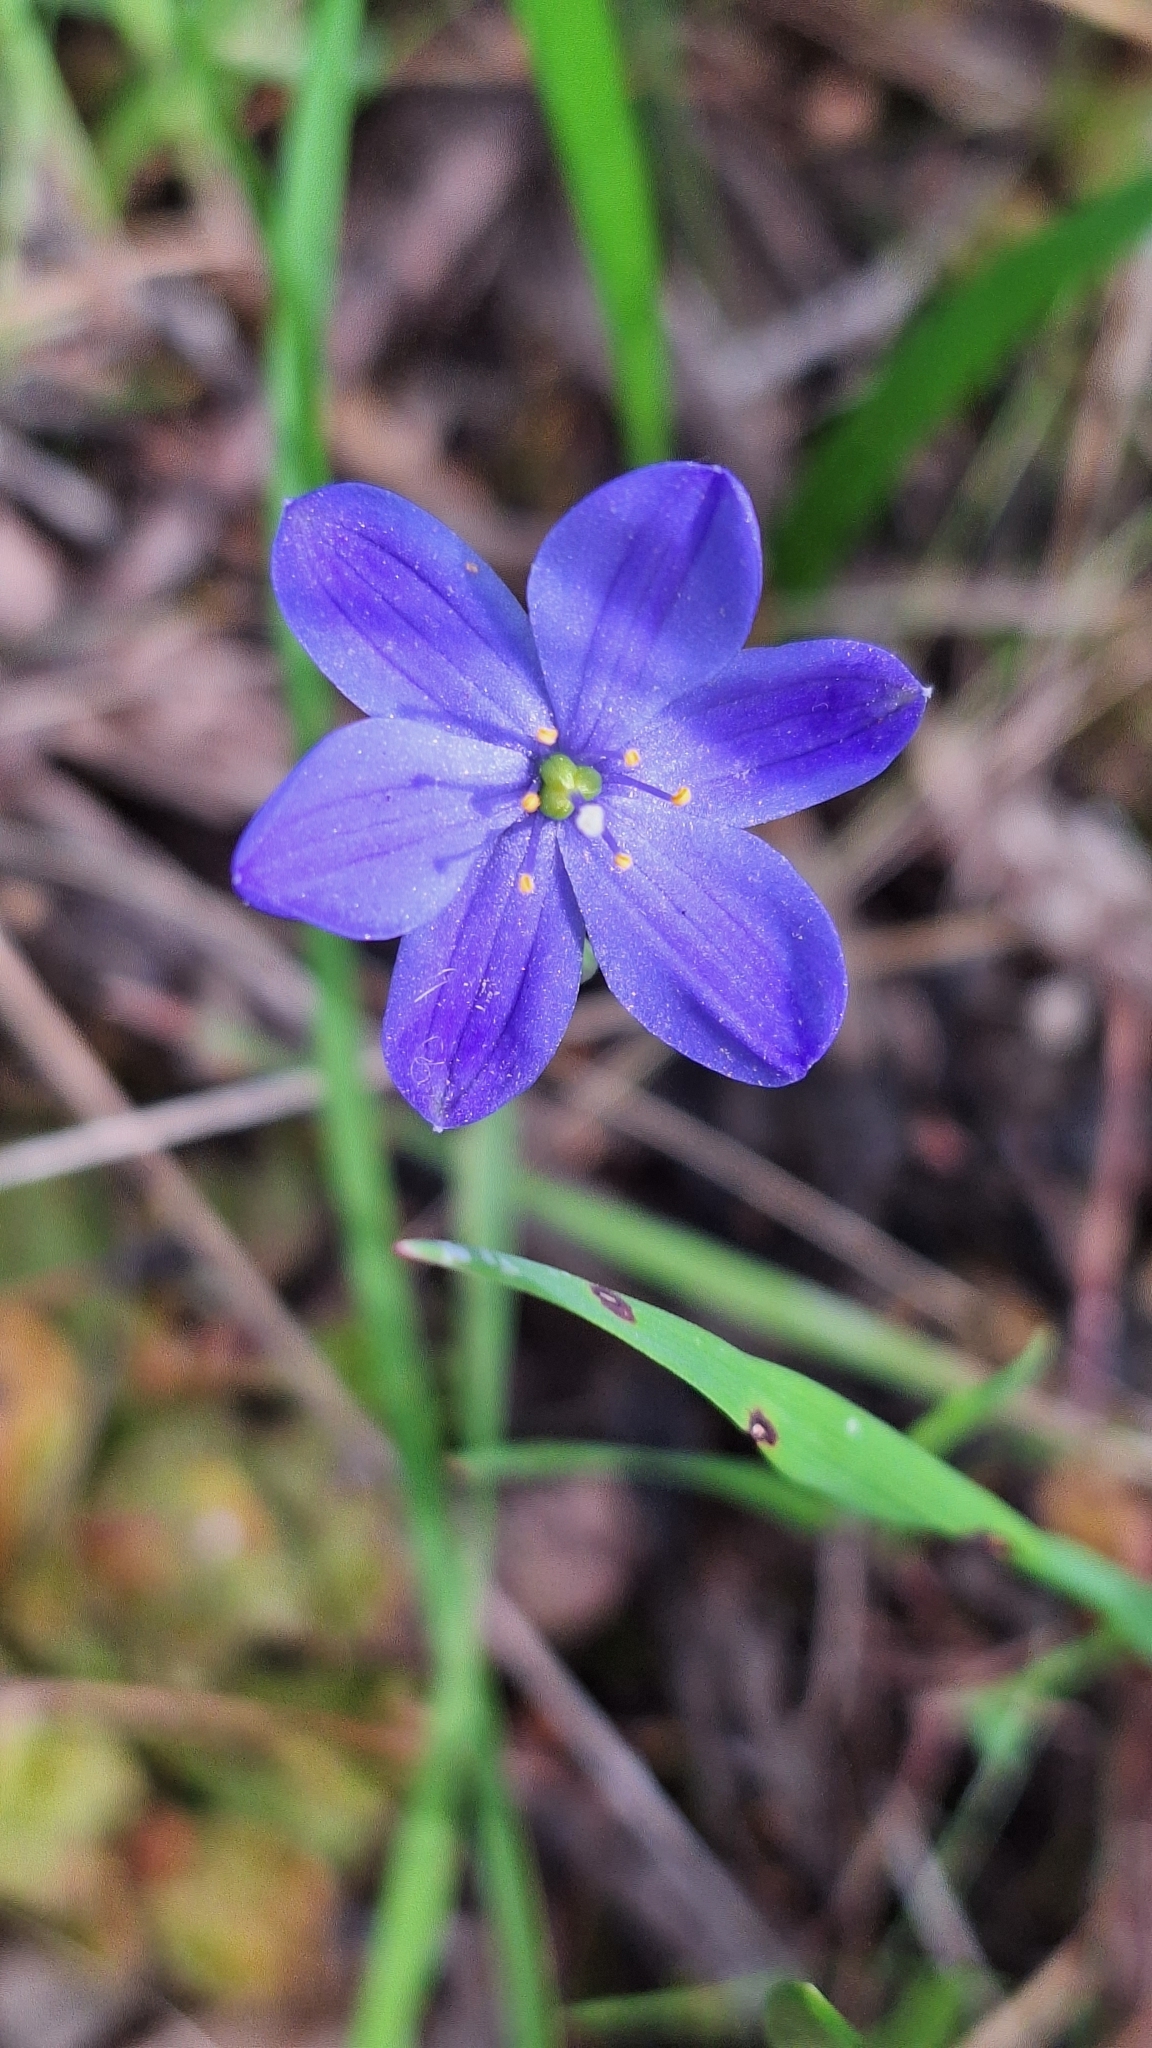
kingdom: Plantae
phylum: Tracheophyta
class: Liliopsida
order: Asparagales
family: Asphodelaceae
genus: Chamaescilla
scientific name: Chamaescilla corymbosa
